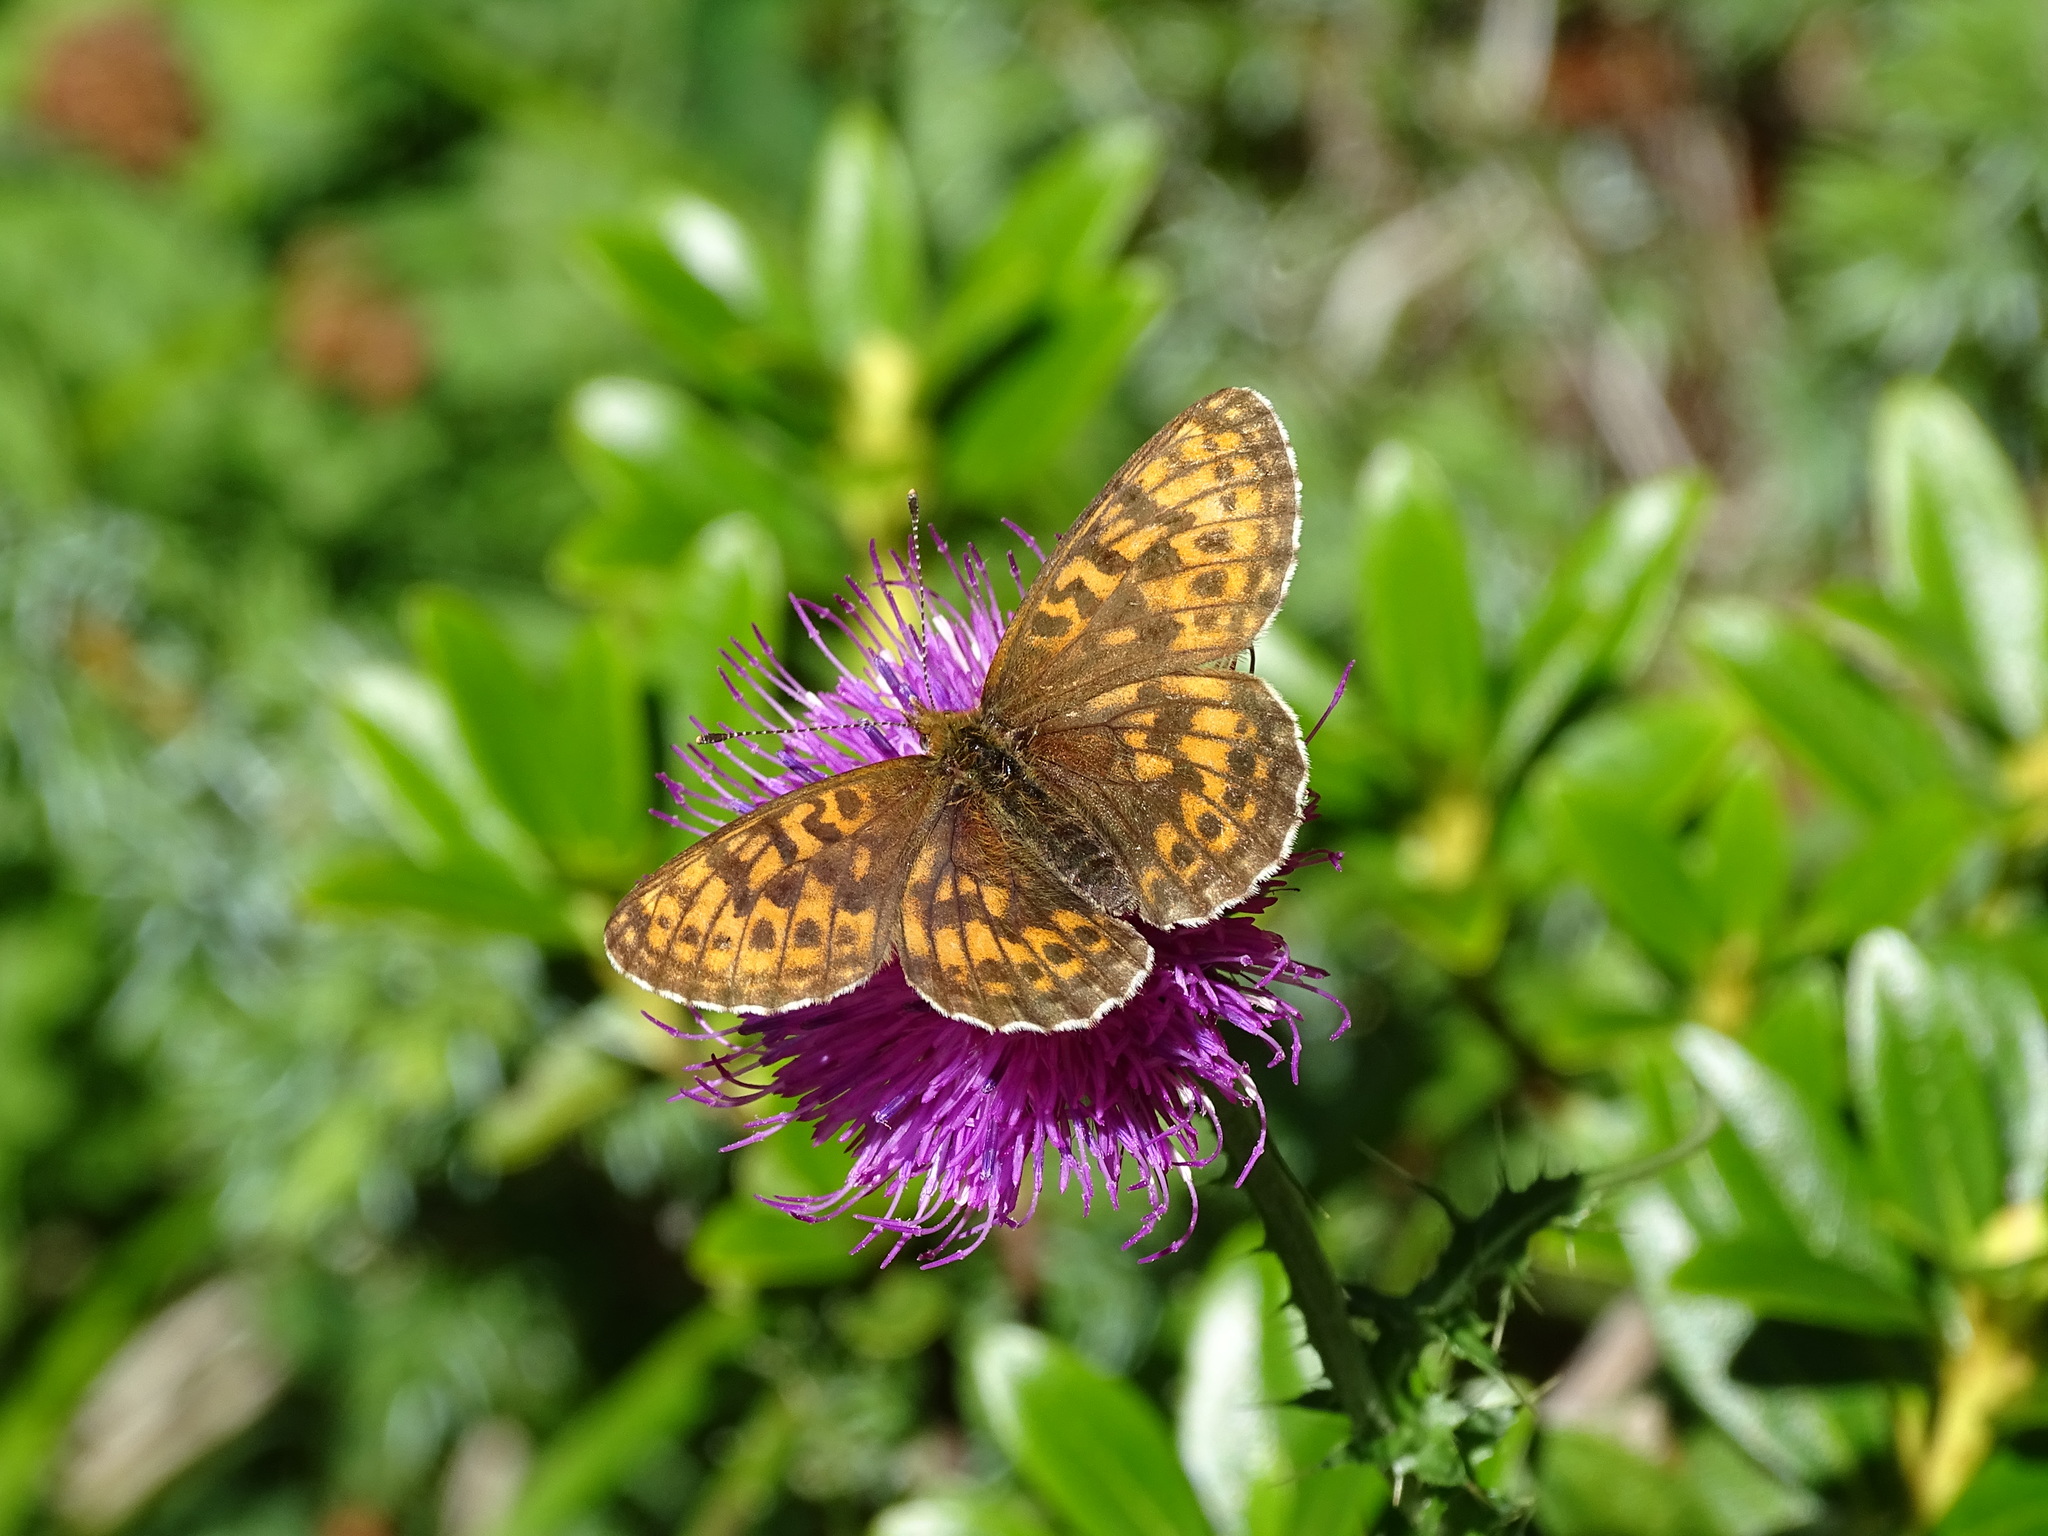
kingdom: Animalia
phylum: Arthropoda
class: Insecta
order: Lepidoptera
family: Nymphalidae
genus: Boloria
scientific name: Boloria thore
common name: Thor's fritillary
